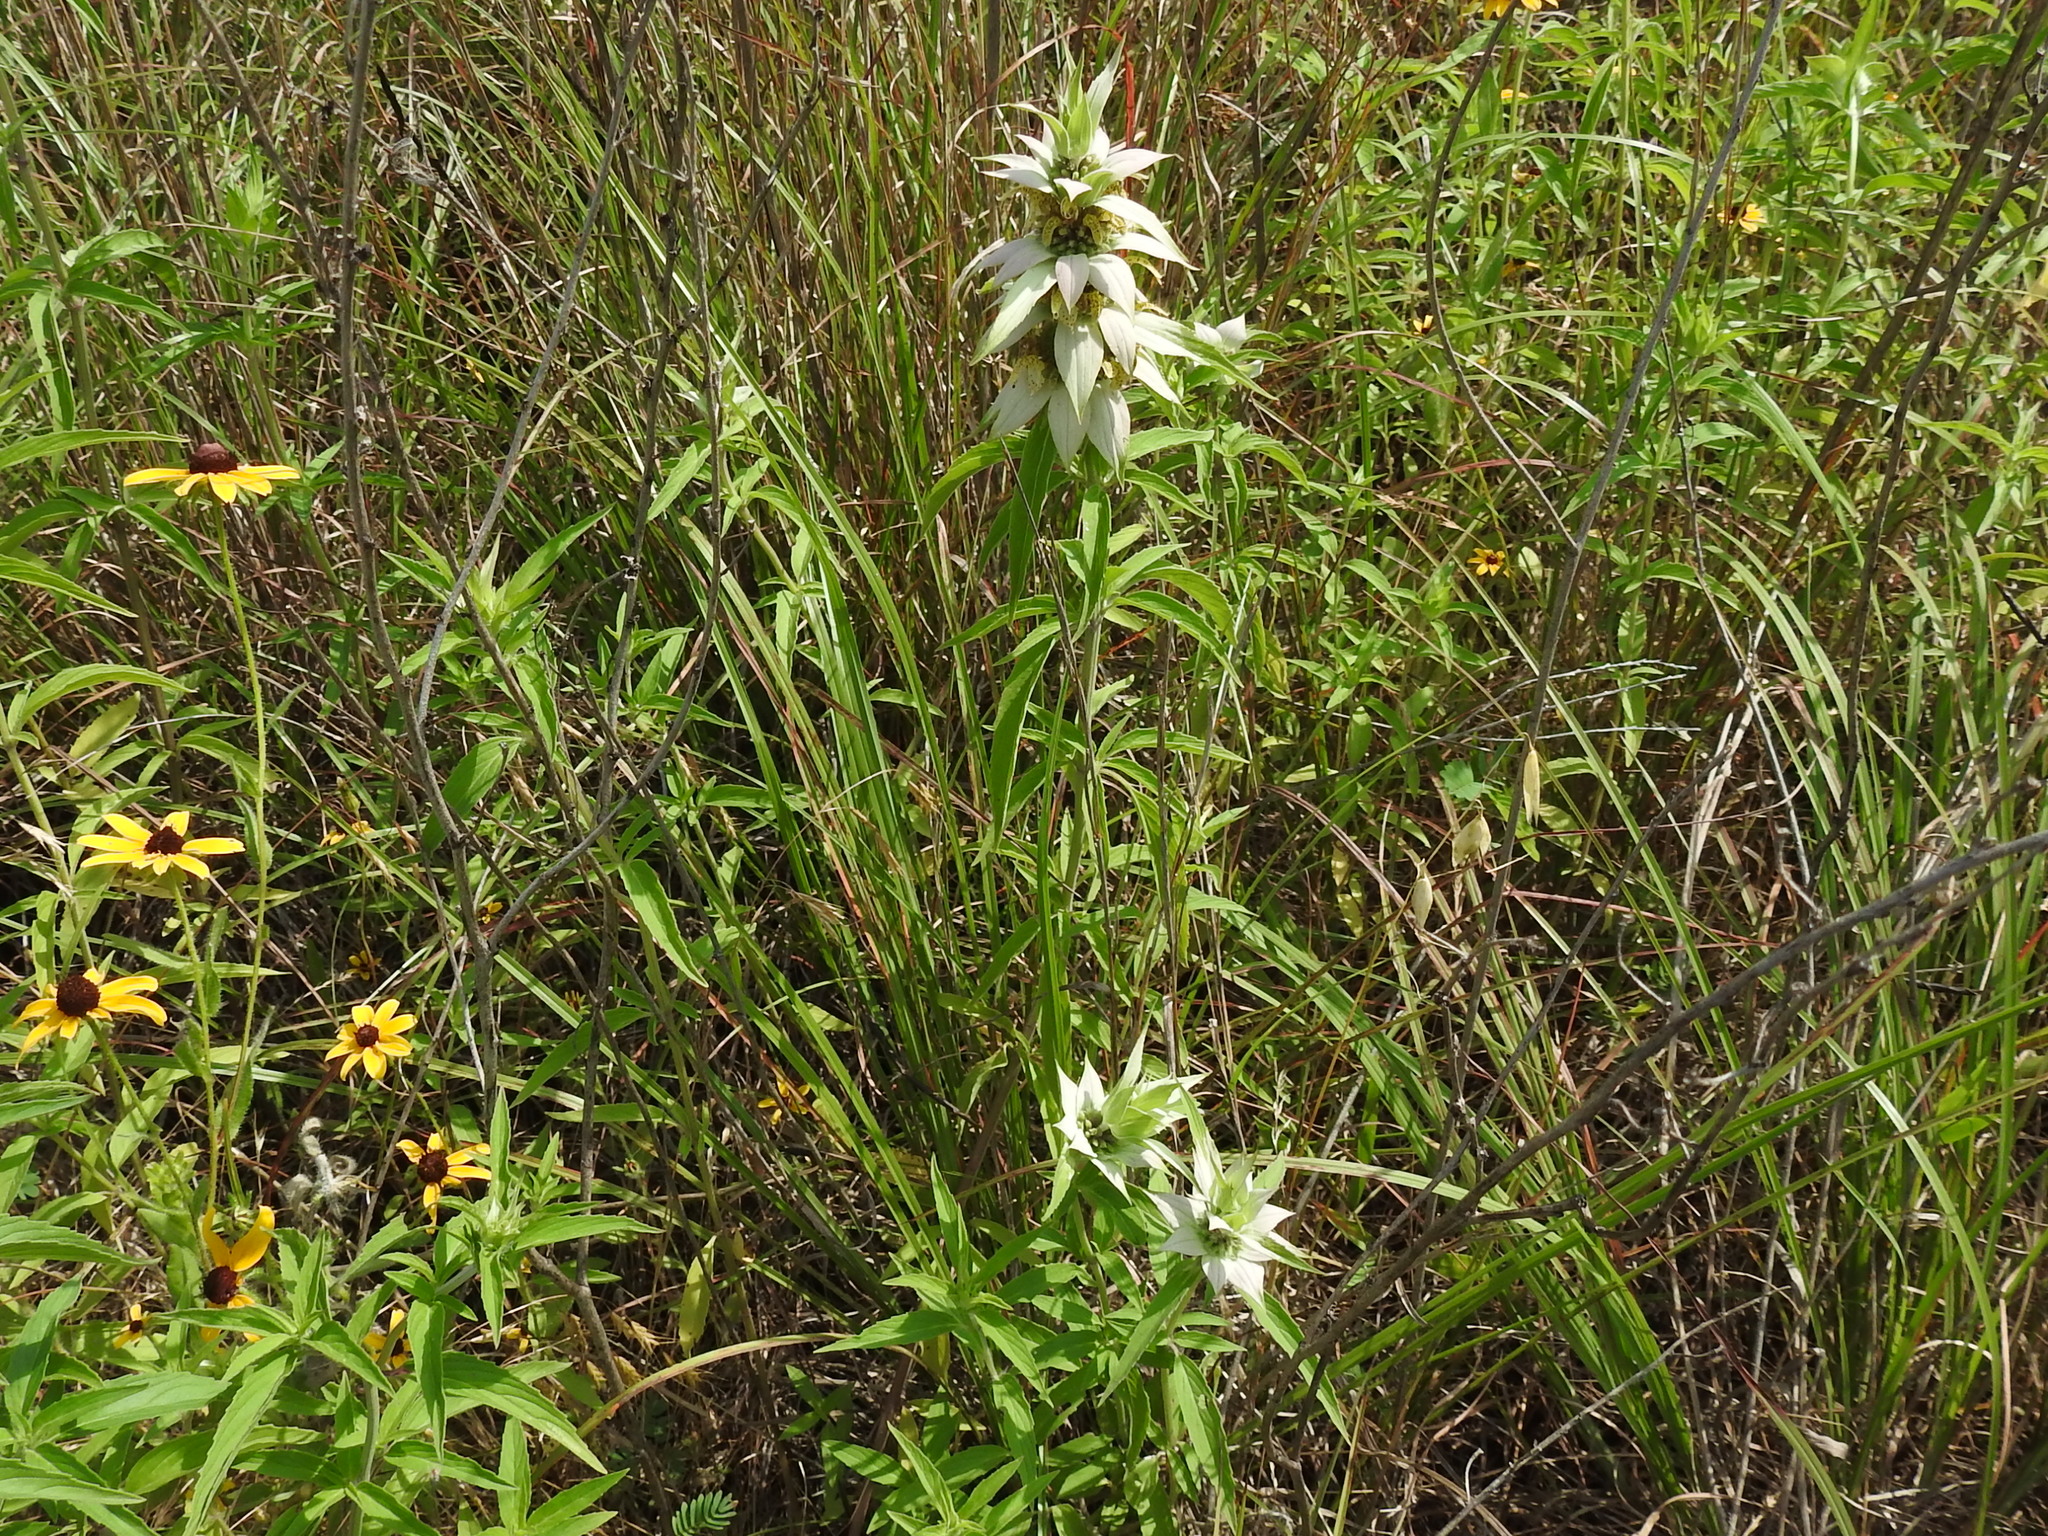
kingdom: Plantae
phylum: Tracheophyta
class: Magnoliopsida
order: Lamiales
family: Lamiaceae
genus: Monarda
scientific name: Monarda punctata
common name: Dotted monarda
